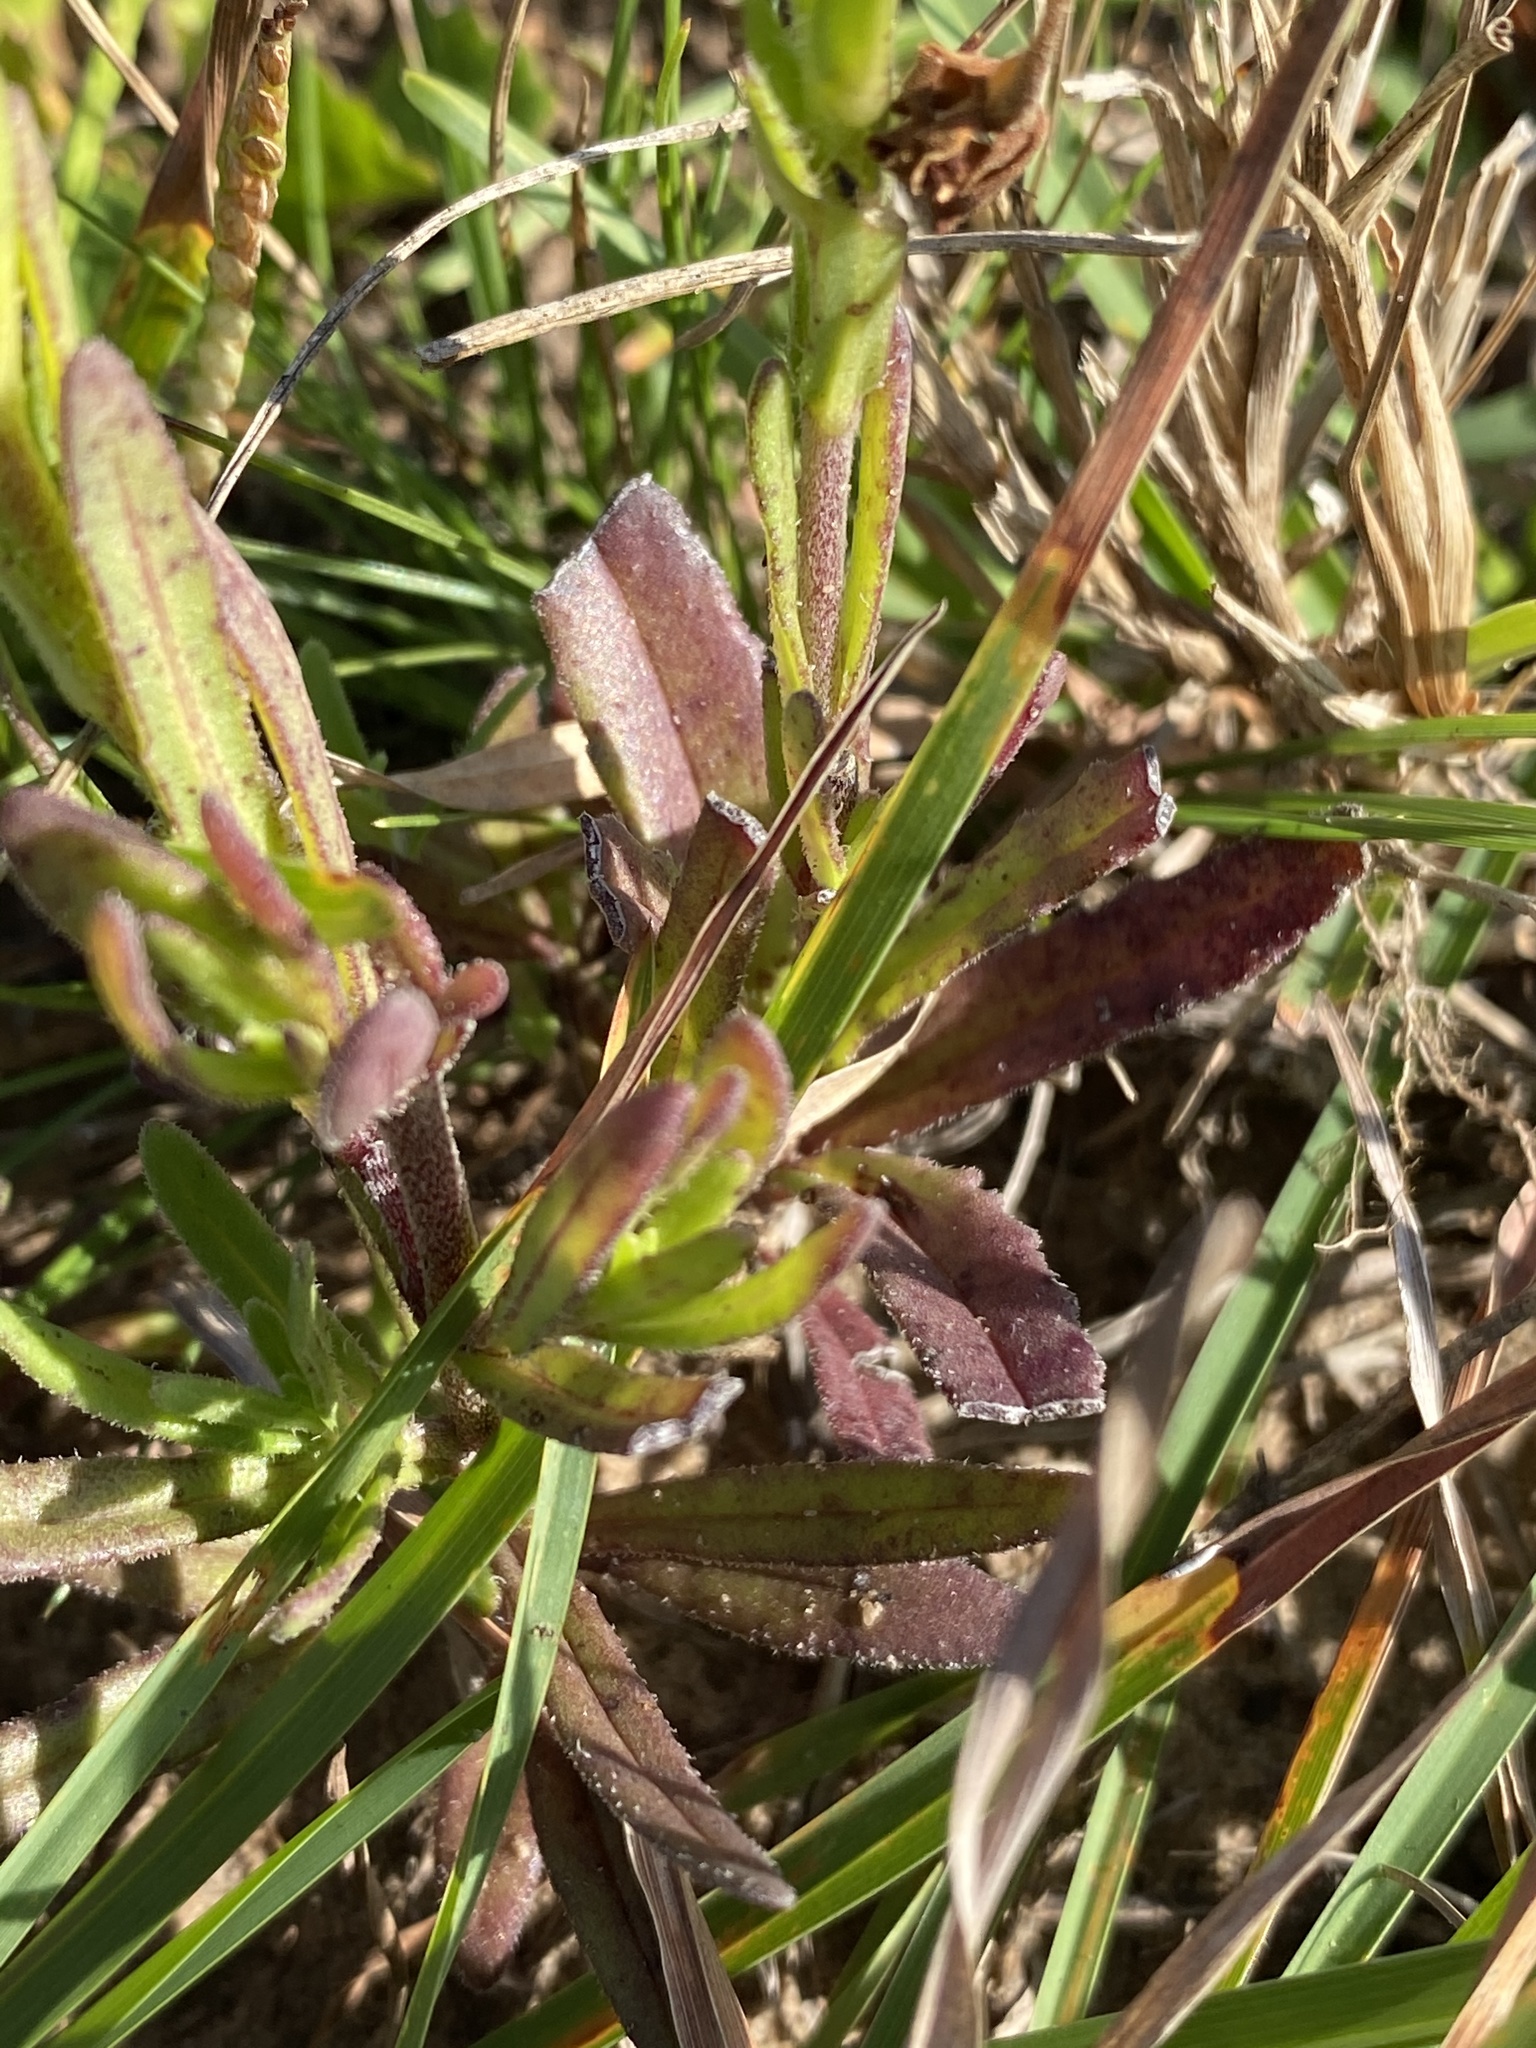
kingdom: Plantae
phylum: Tracheophyta
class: Magnoliopsida
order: Lamiales
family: Scrophulariaceae
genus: Zaluzianskya
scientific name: Zaluzianskya capensis
